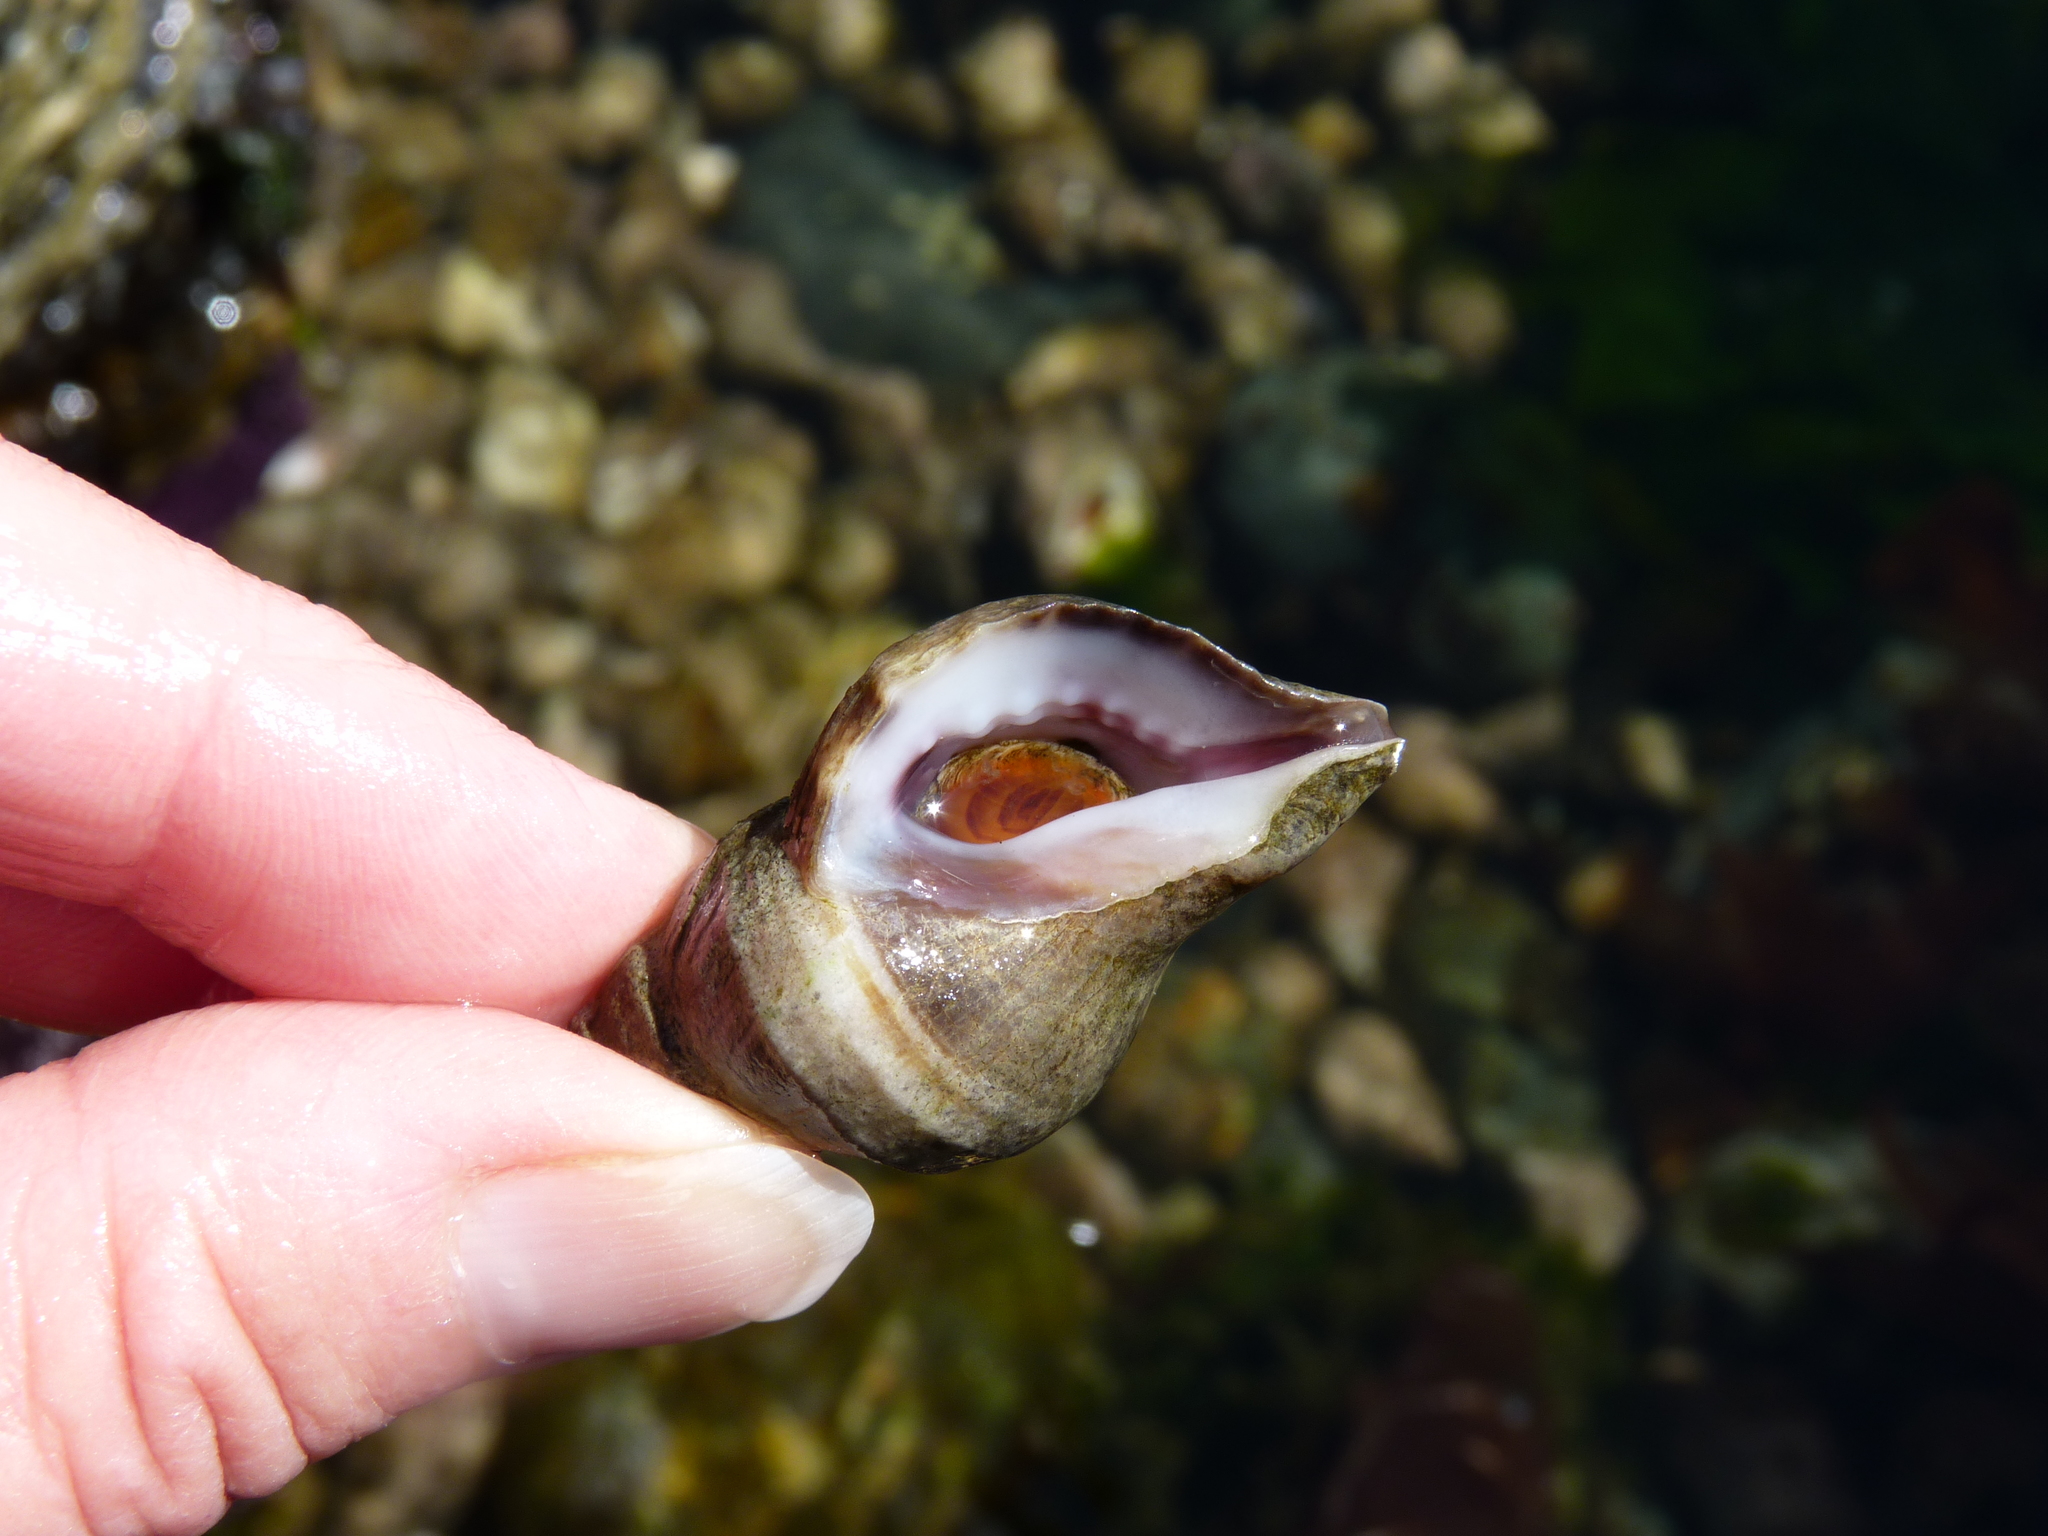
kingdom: Animalia
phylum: Mollusca
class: Gastropoda
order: Neogastropoda
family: Muricidae
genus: Nucella
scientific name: Nucella lamellosa
